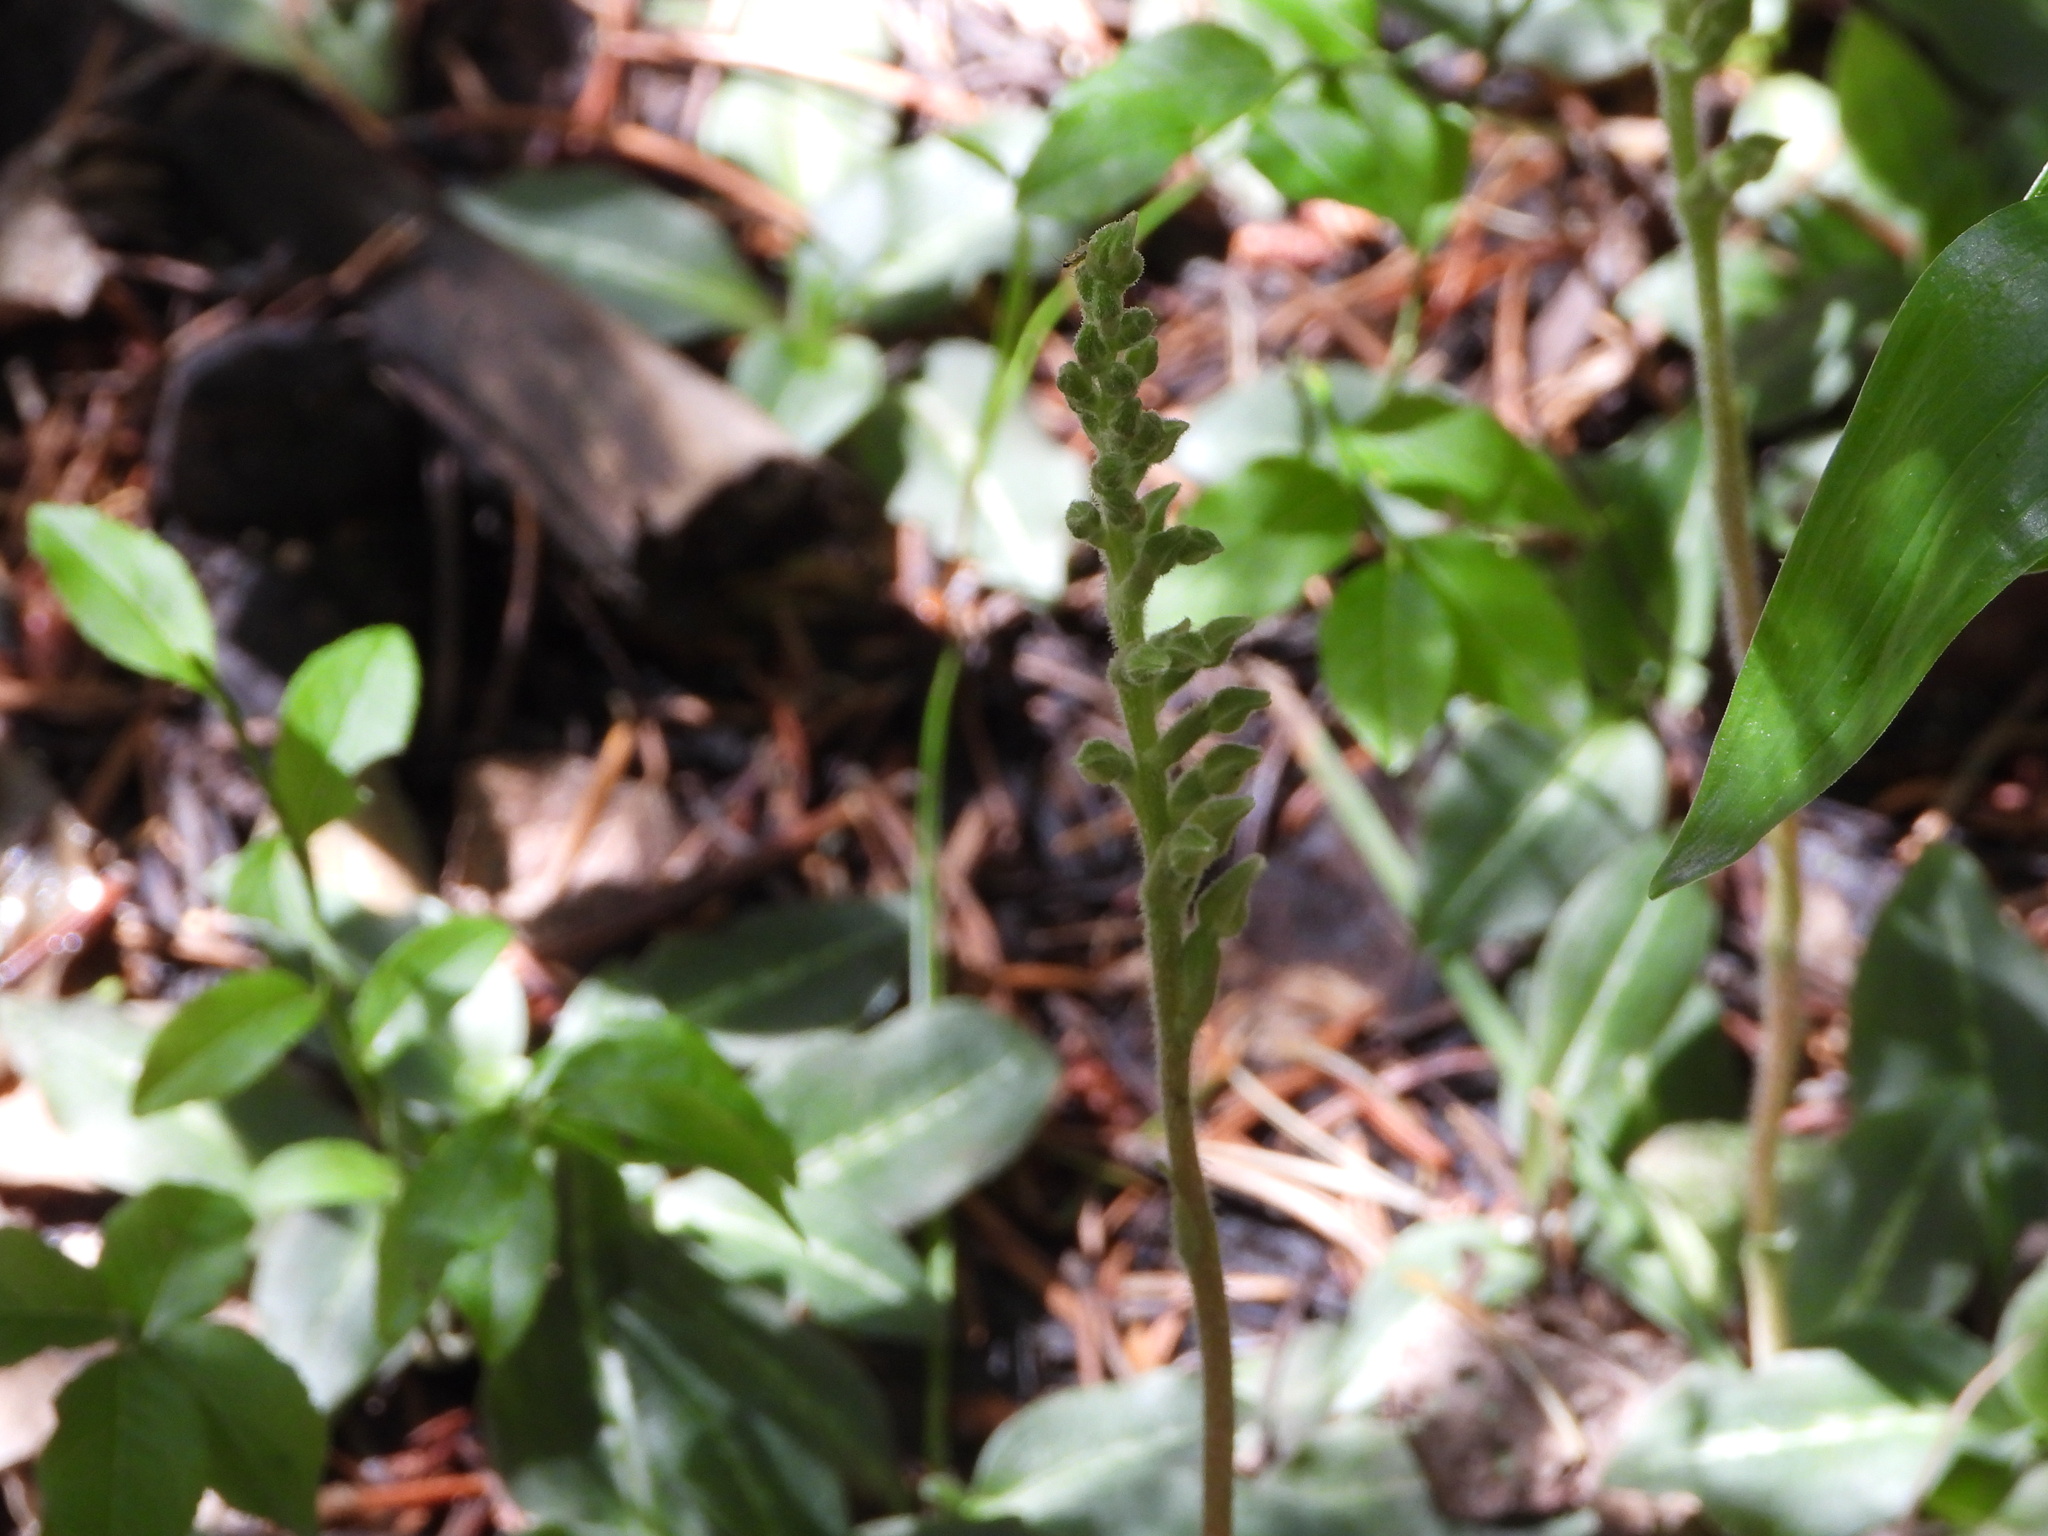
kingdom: Plantae
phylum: Tracheophyta
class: Liliopsida
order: Asparagales
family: Orchidaceae
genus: Goodyera
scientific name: Goodyera oblongifolia
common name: Giant rattlesnake-plantain
